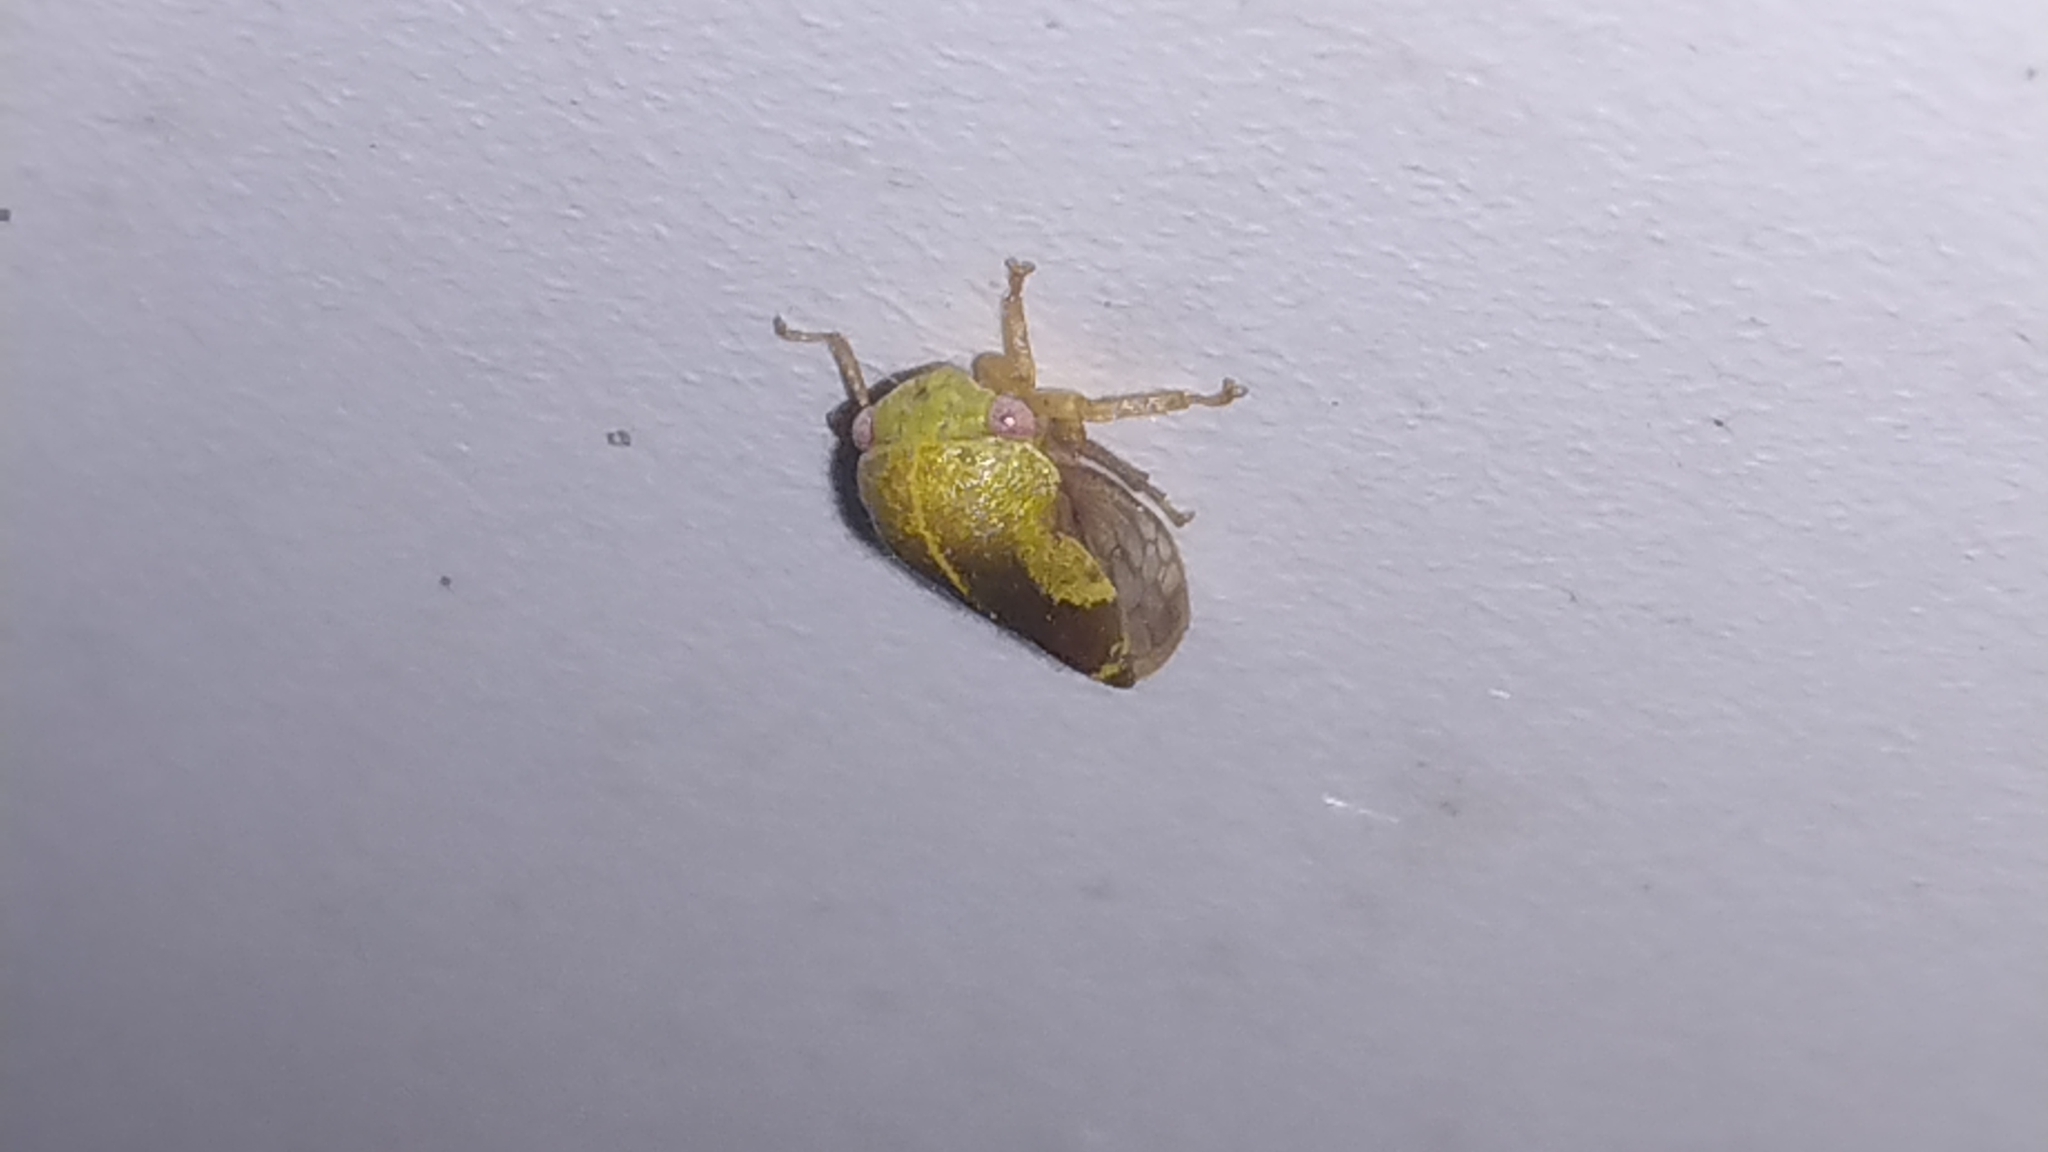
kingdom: Animalia
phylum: Arthropoda
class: Insecta
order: Hemiptera
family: Membracidae
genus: Ophiderma
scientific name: Ophiderma evelyna
